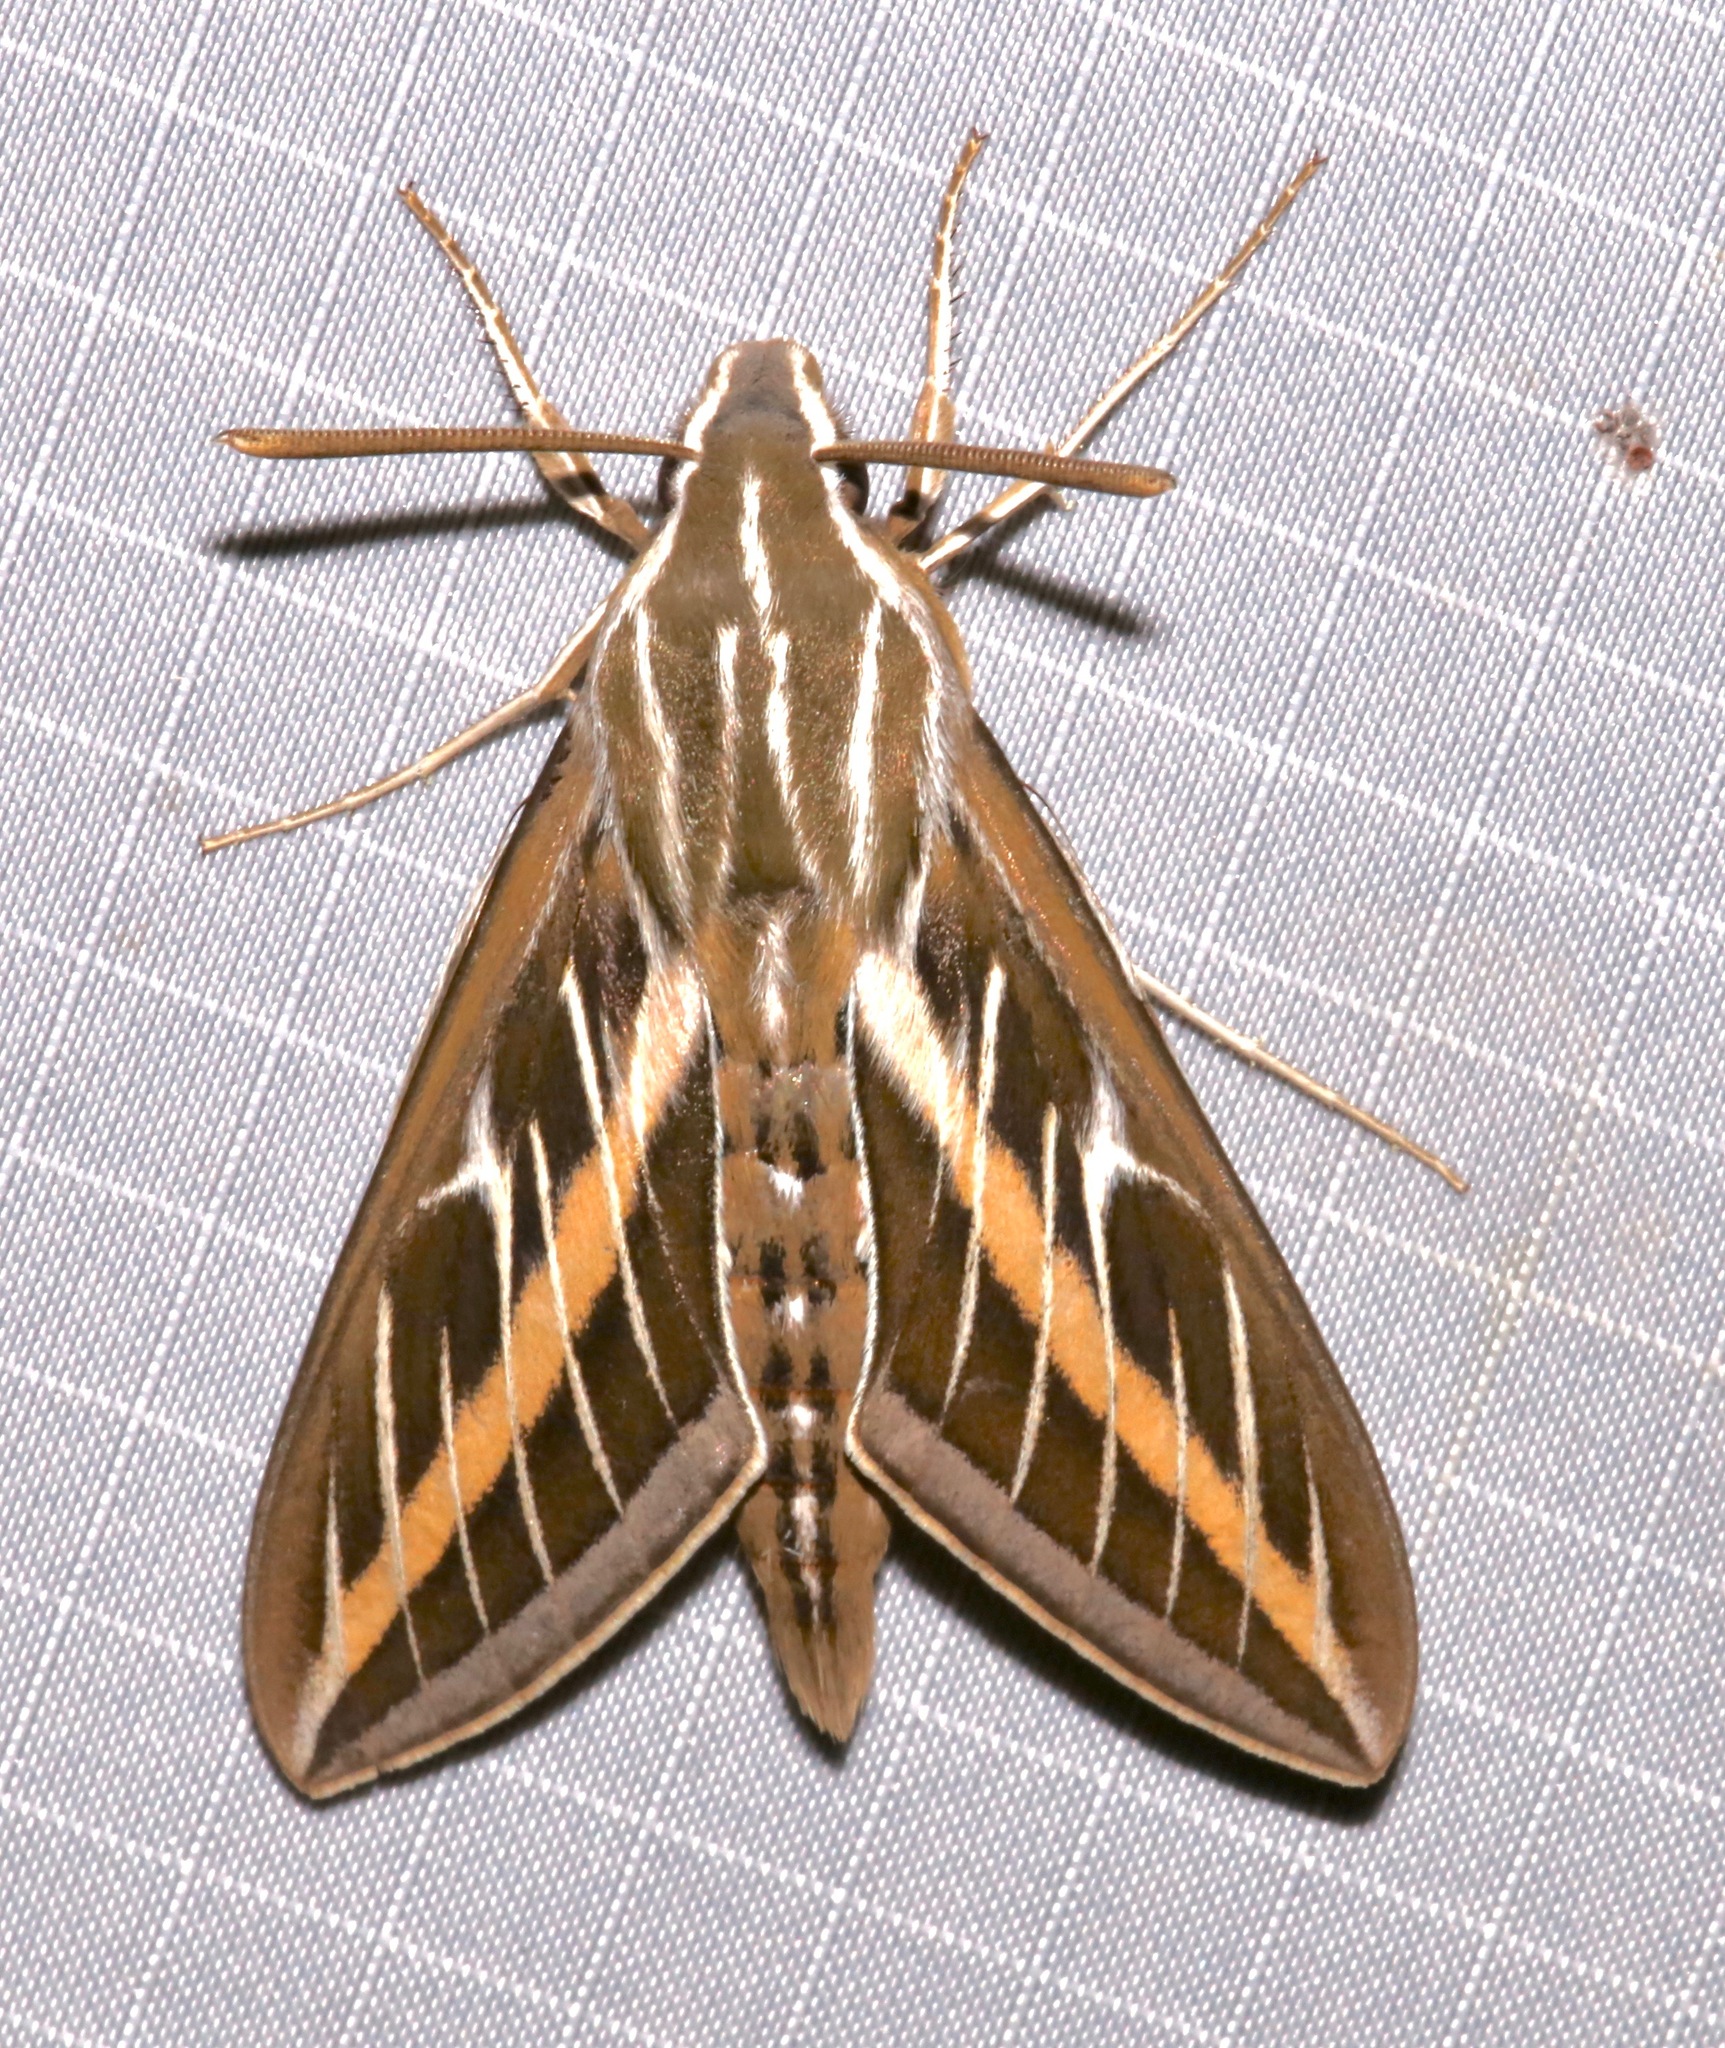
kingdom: Animalia
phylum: Arthropoda
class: Insecta
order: Lepidoptera
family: Sphingidae
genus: Hyles
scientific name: Hyles lineata
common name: White-lined sphinx
